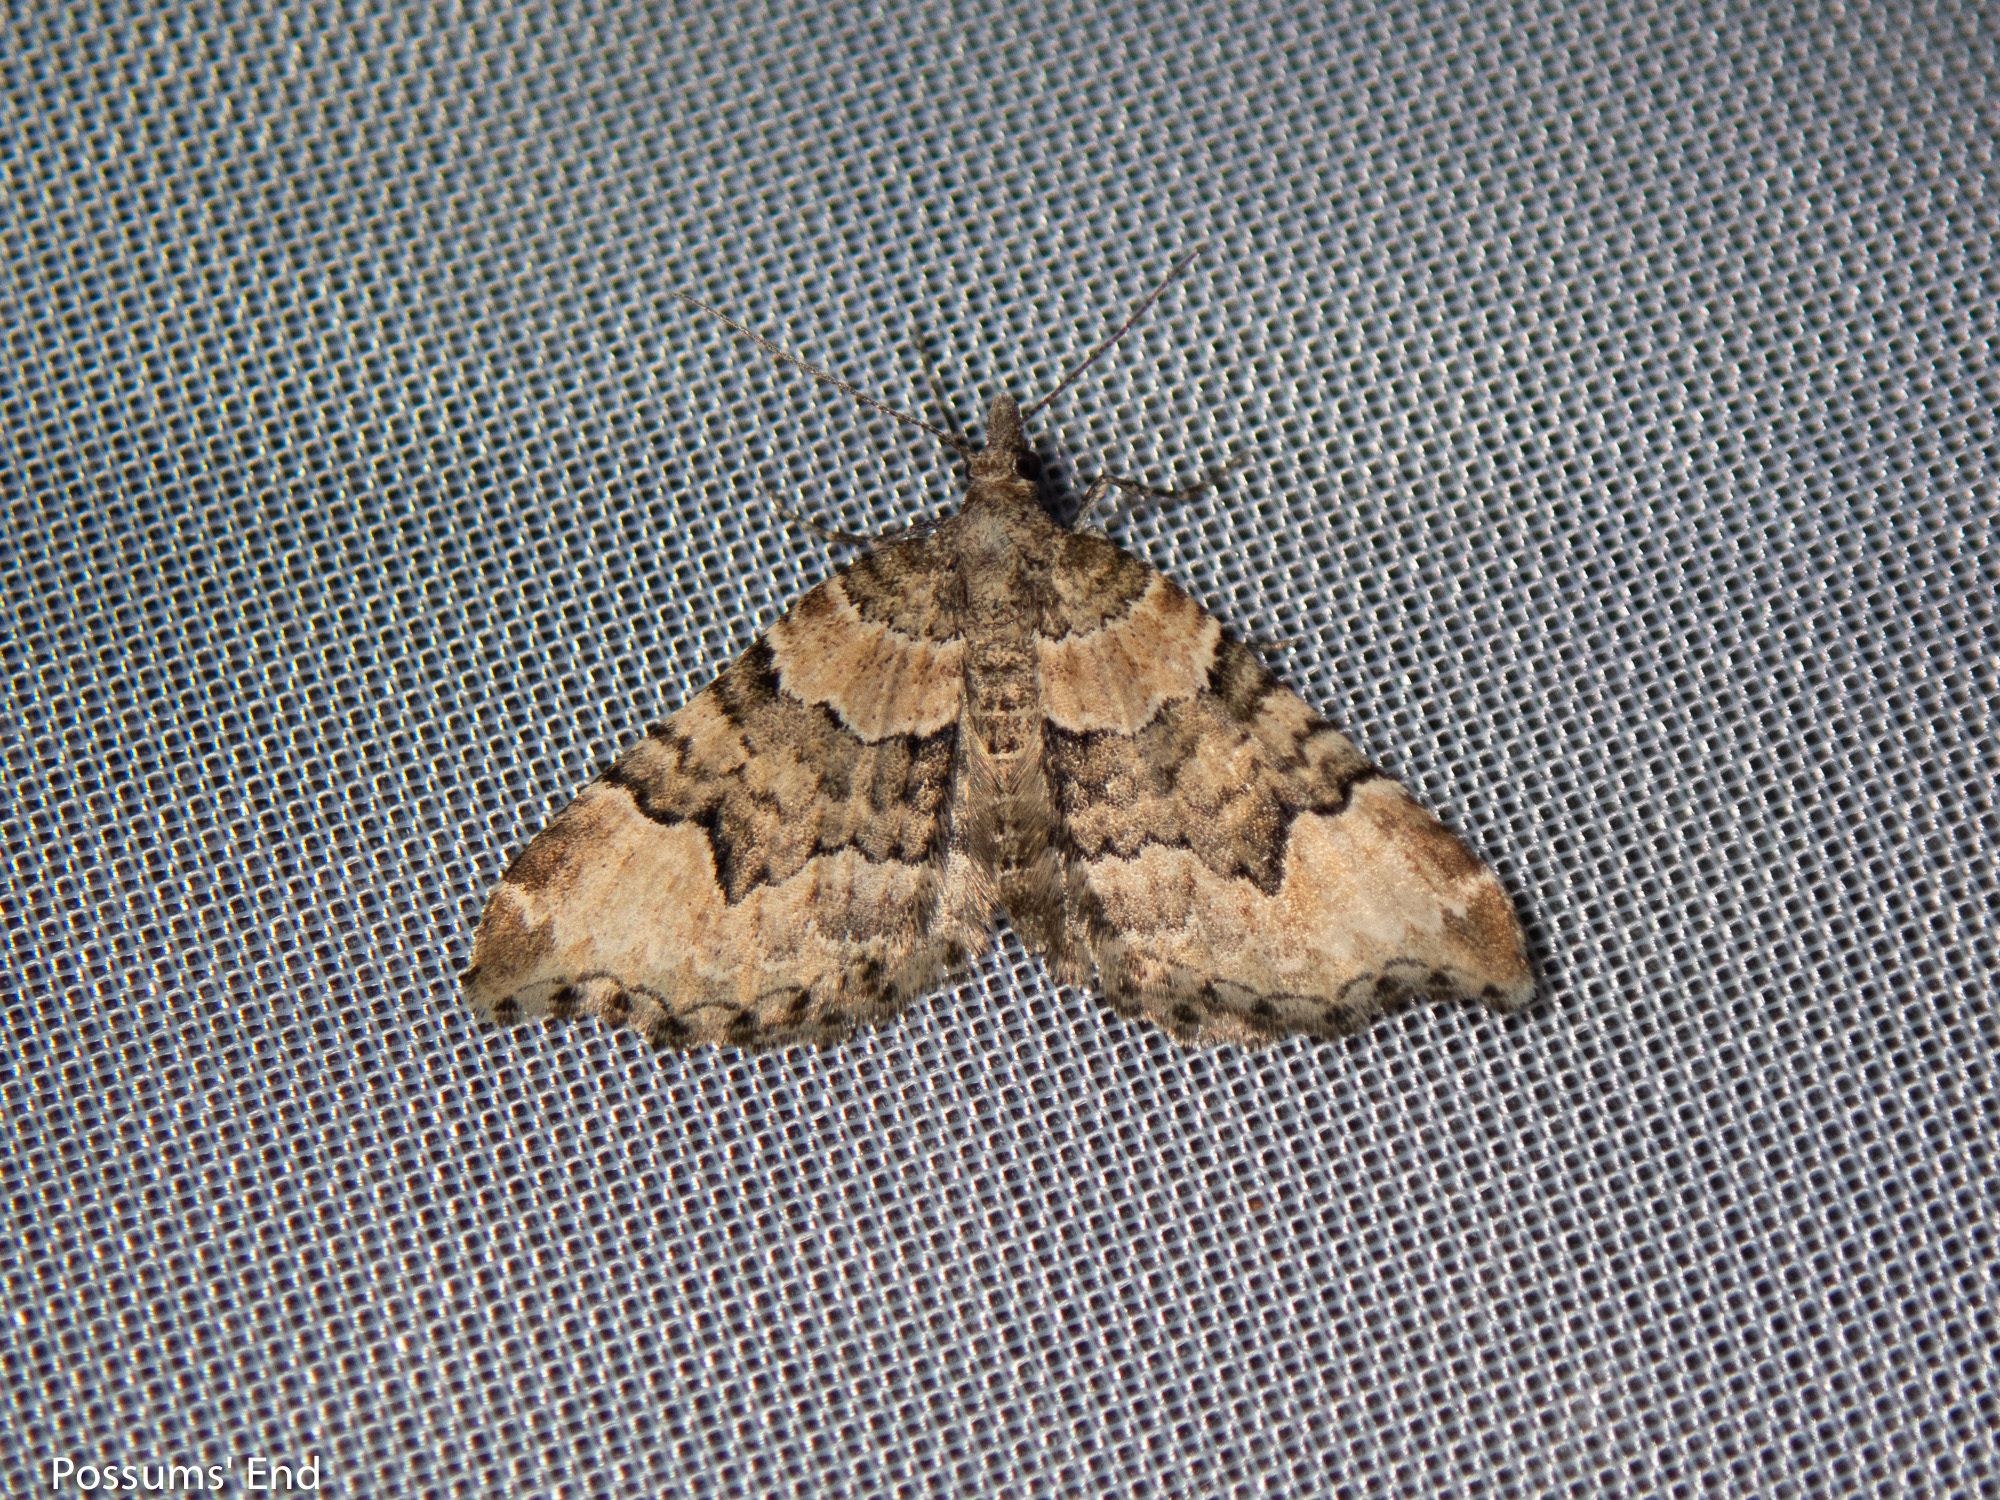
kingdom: Animalia
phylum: Arthropoda
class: Insecta
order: Lepidoptera
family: Geometridae
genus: Helastia
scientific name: Helastia cryptica
